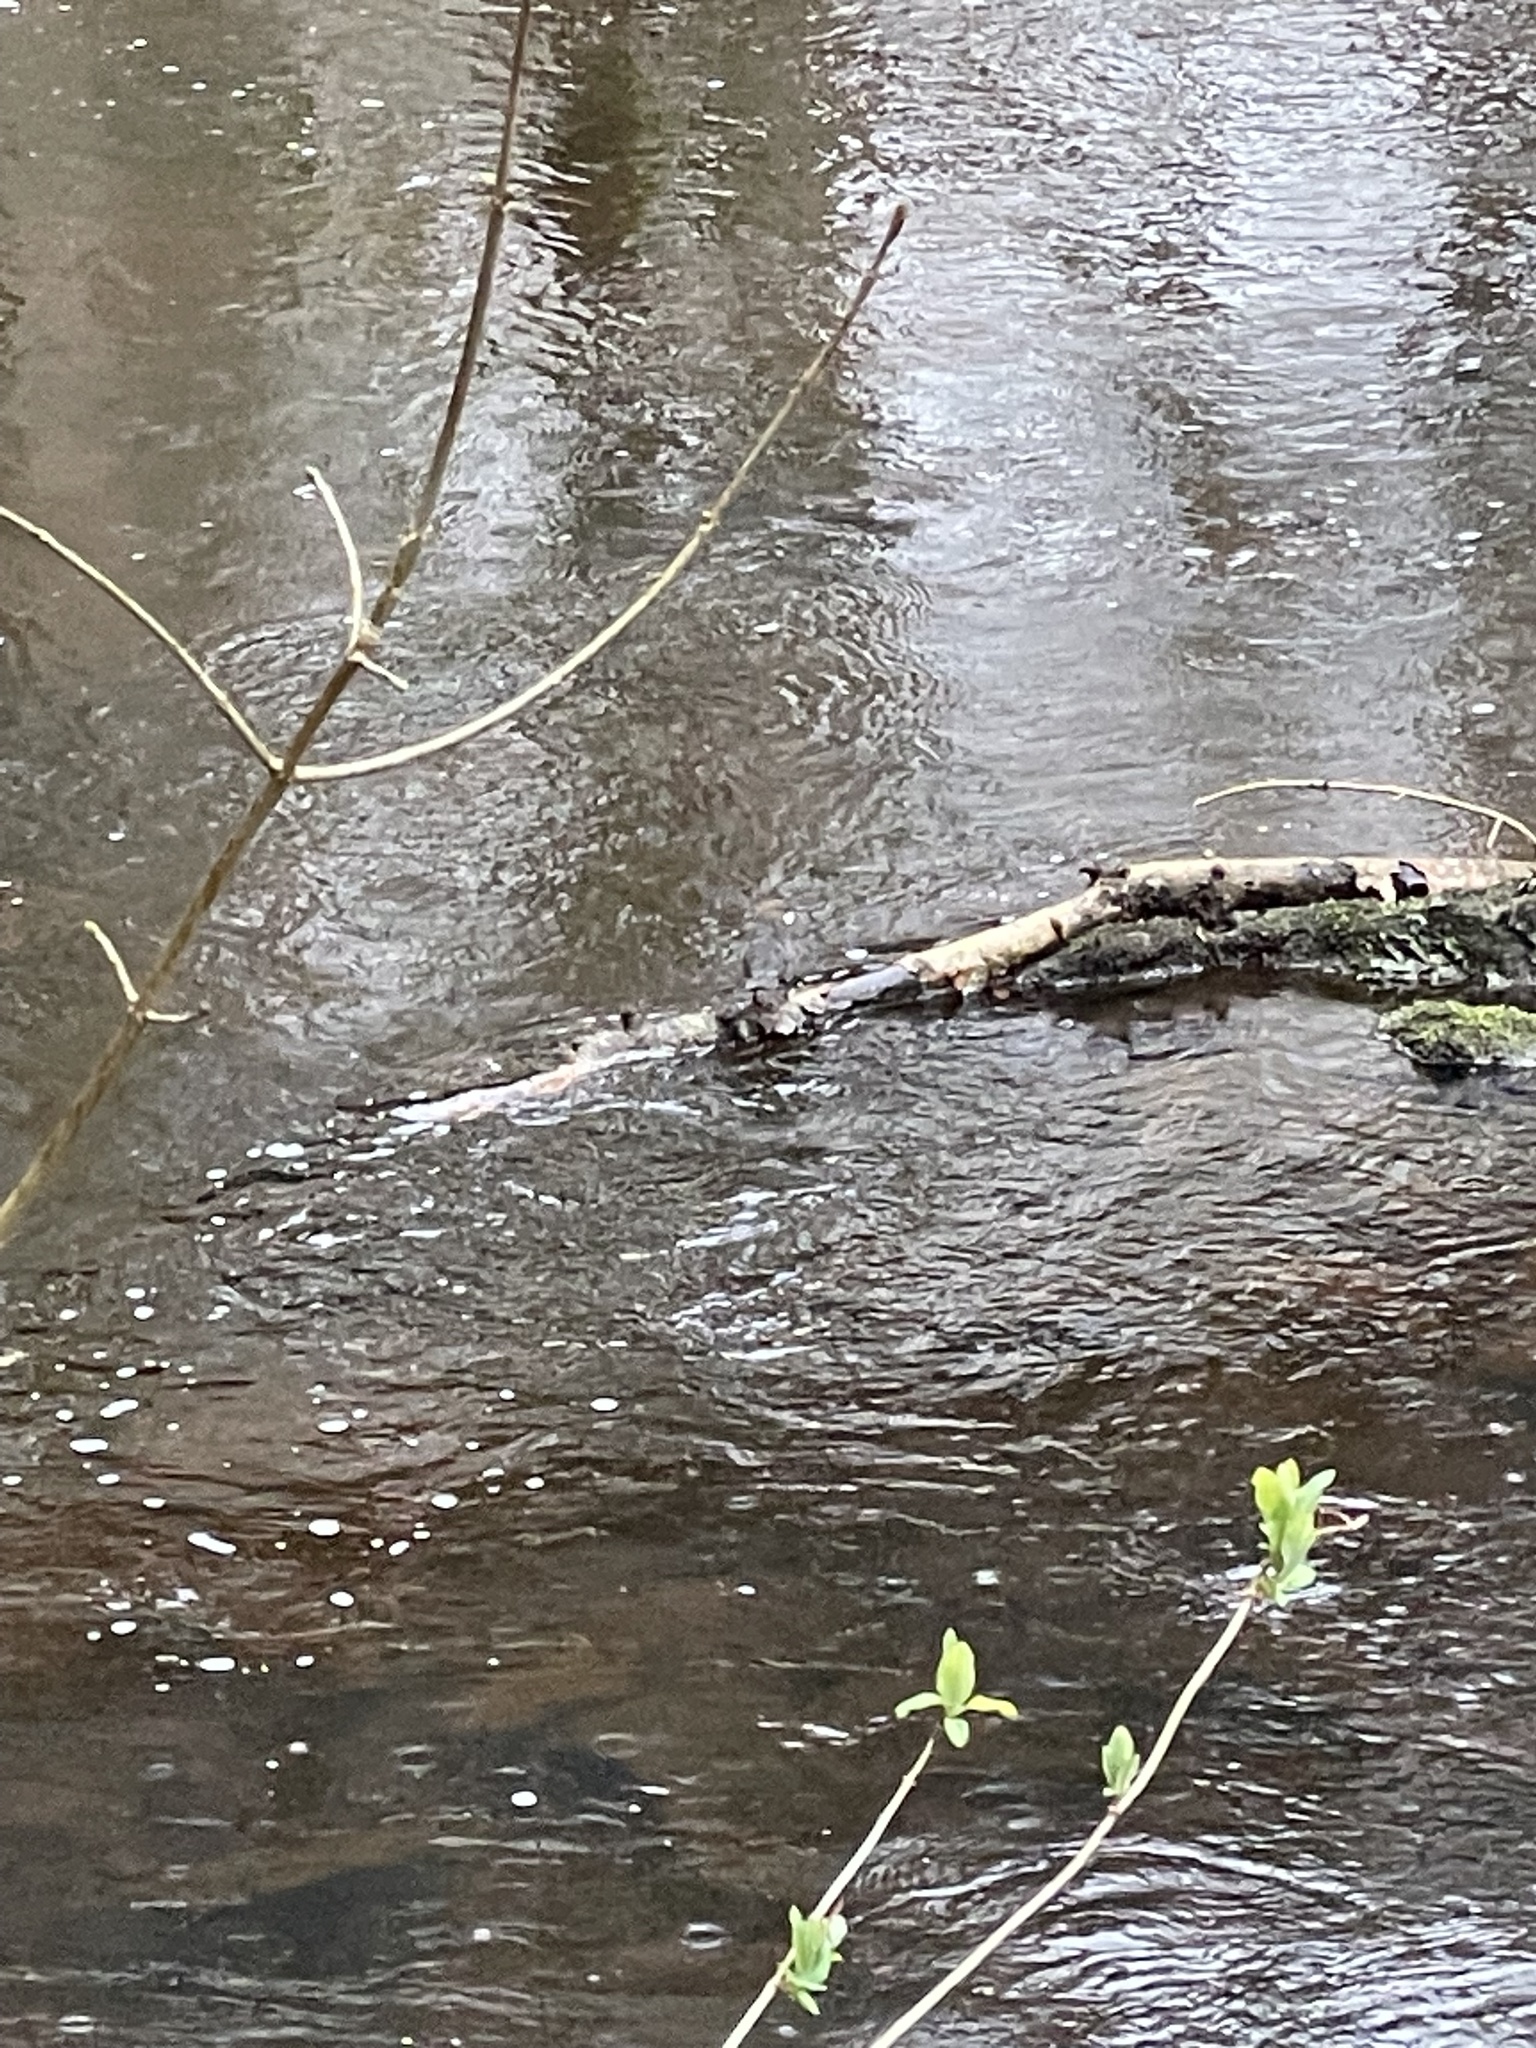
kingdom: Animalia
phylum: Chordata
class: Aves
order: Passeriformes
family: Cinclidae
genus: Cinclus
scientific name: Cinclus cinclus
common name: White-throated dipper
